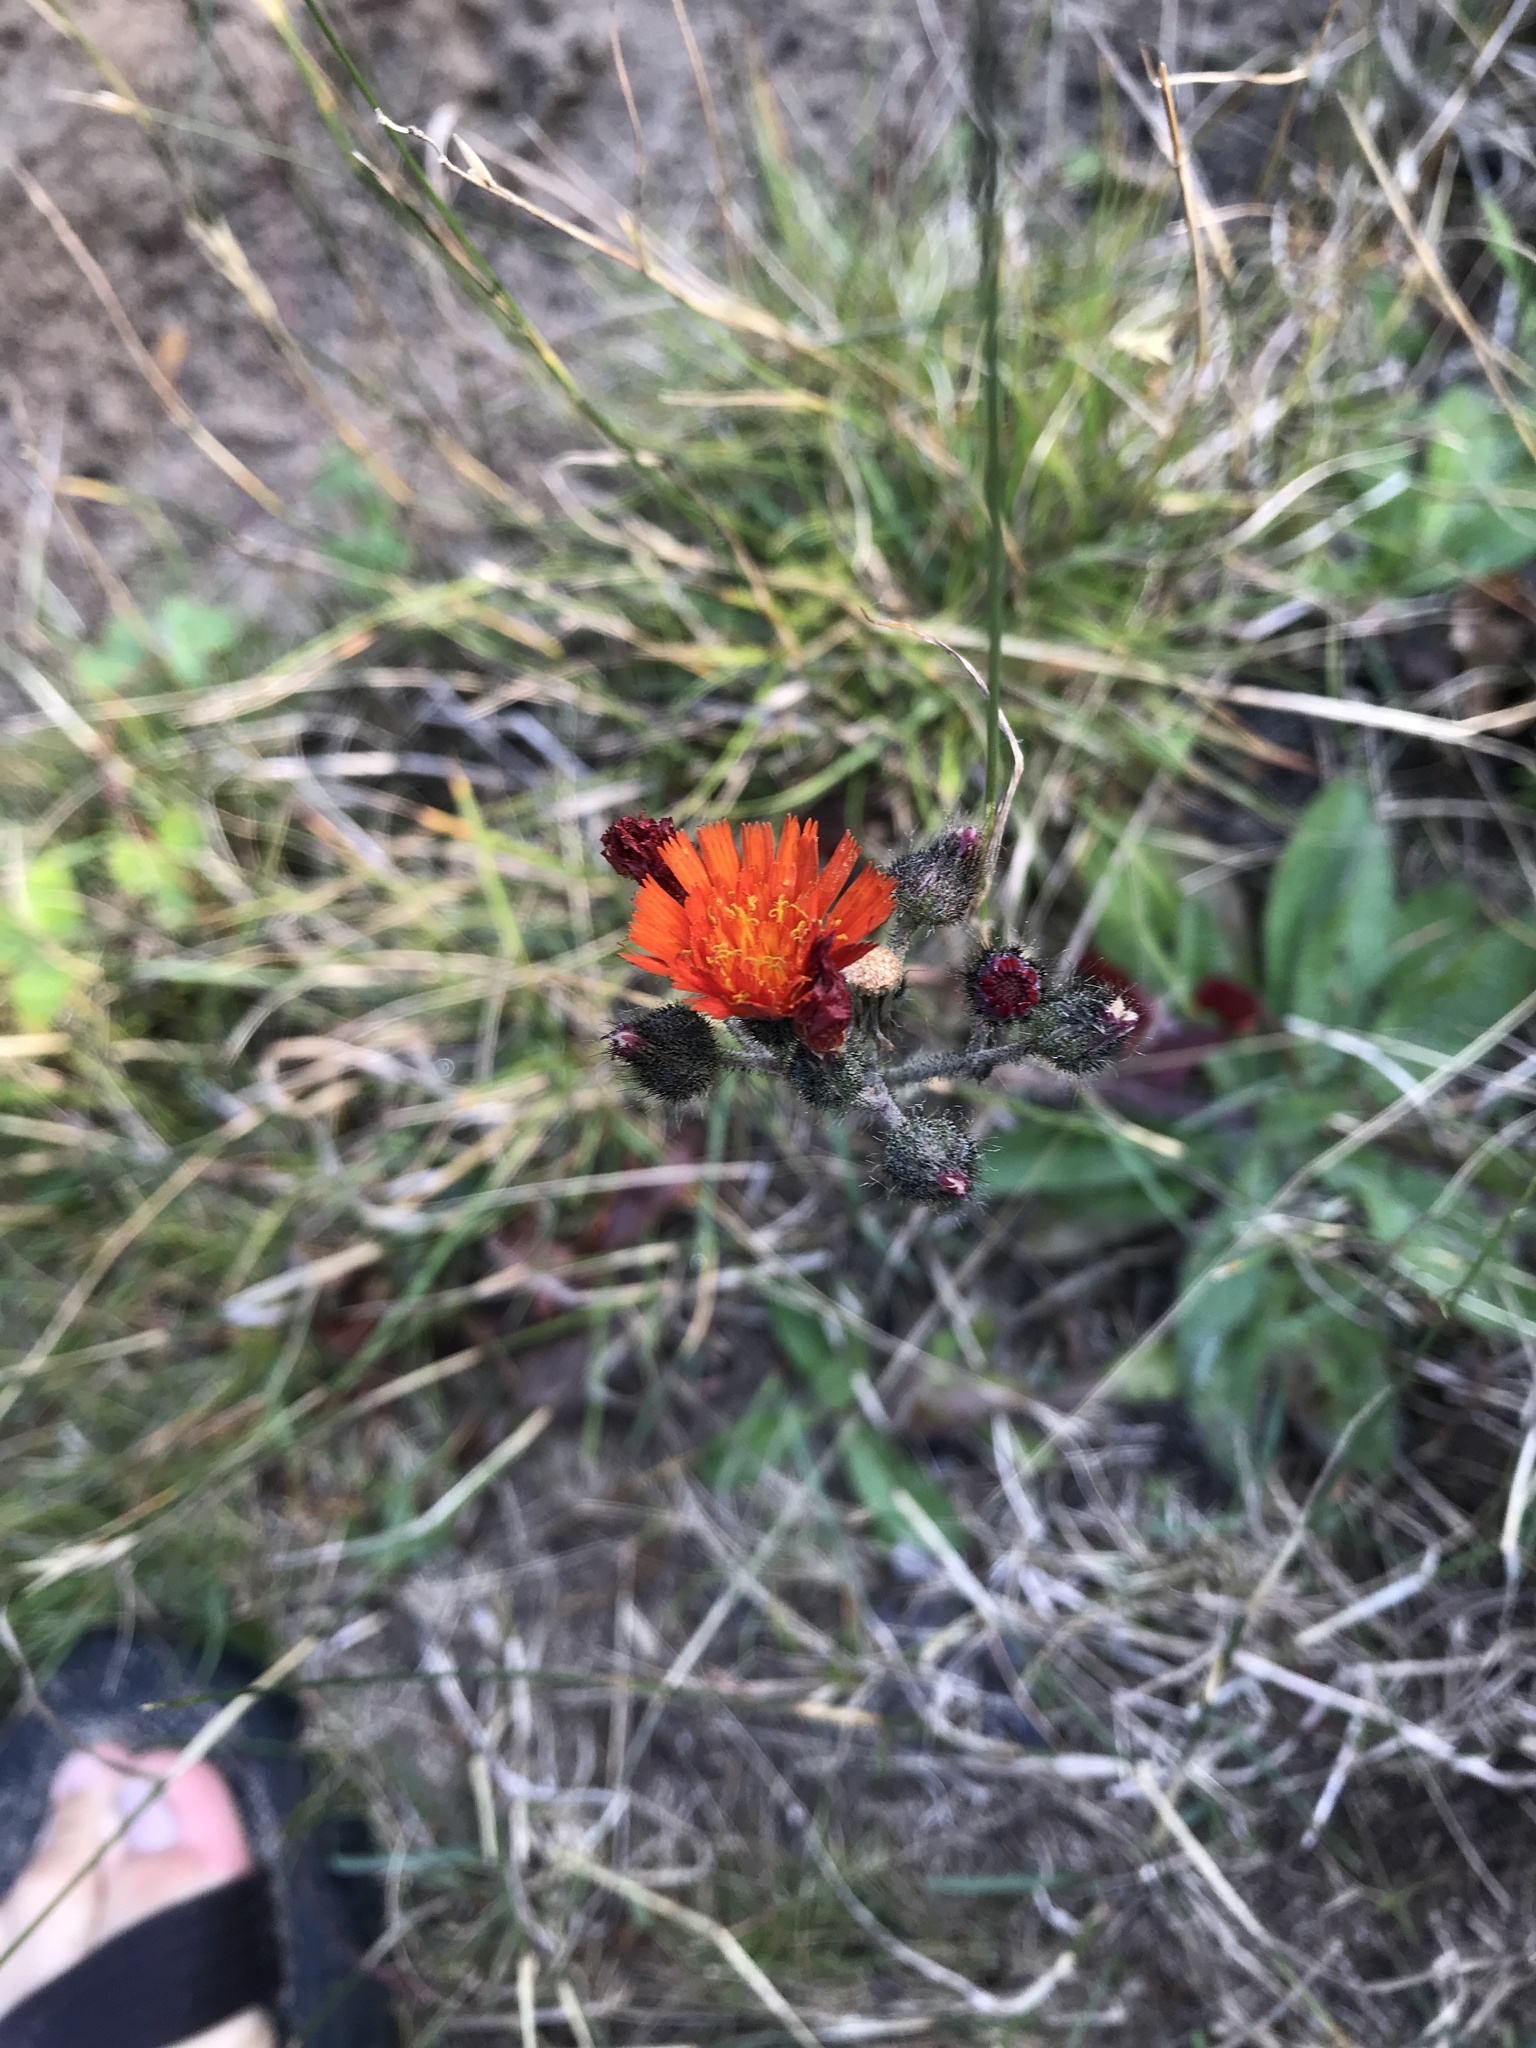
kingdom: Plantae
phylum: Tracheophyta
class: Magnoliopsida
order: Asterales
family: Asteraceae
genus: Pilosella
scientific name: Pilosella aurantiaca
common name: Fox-and-cubs
